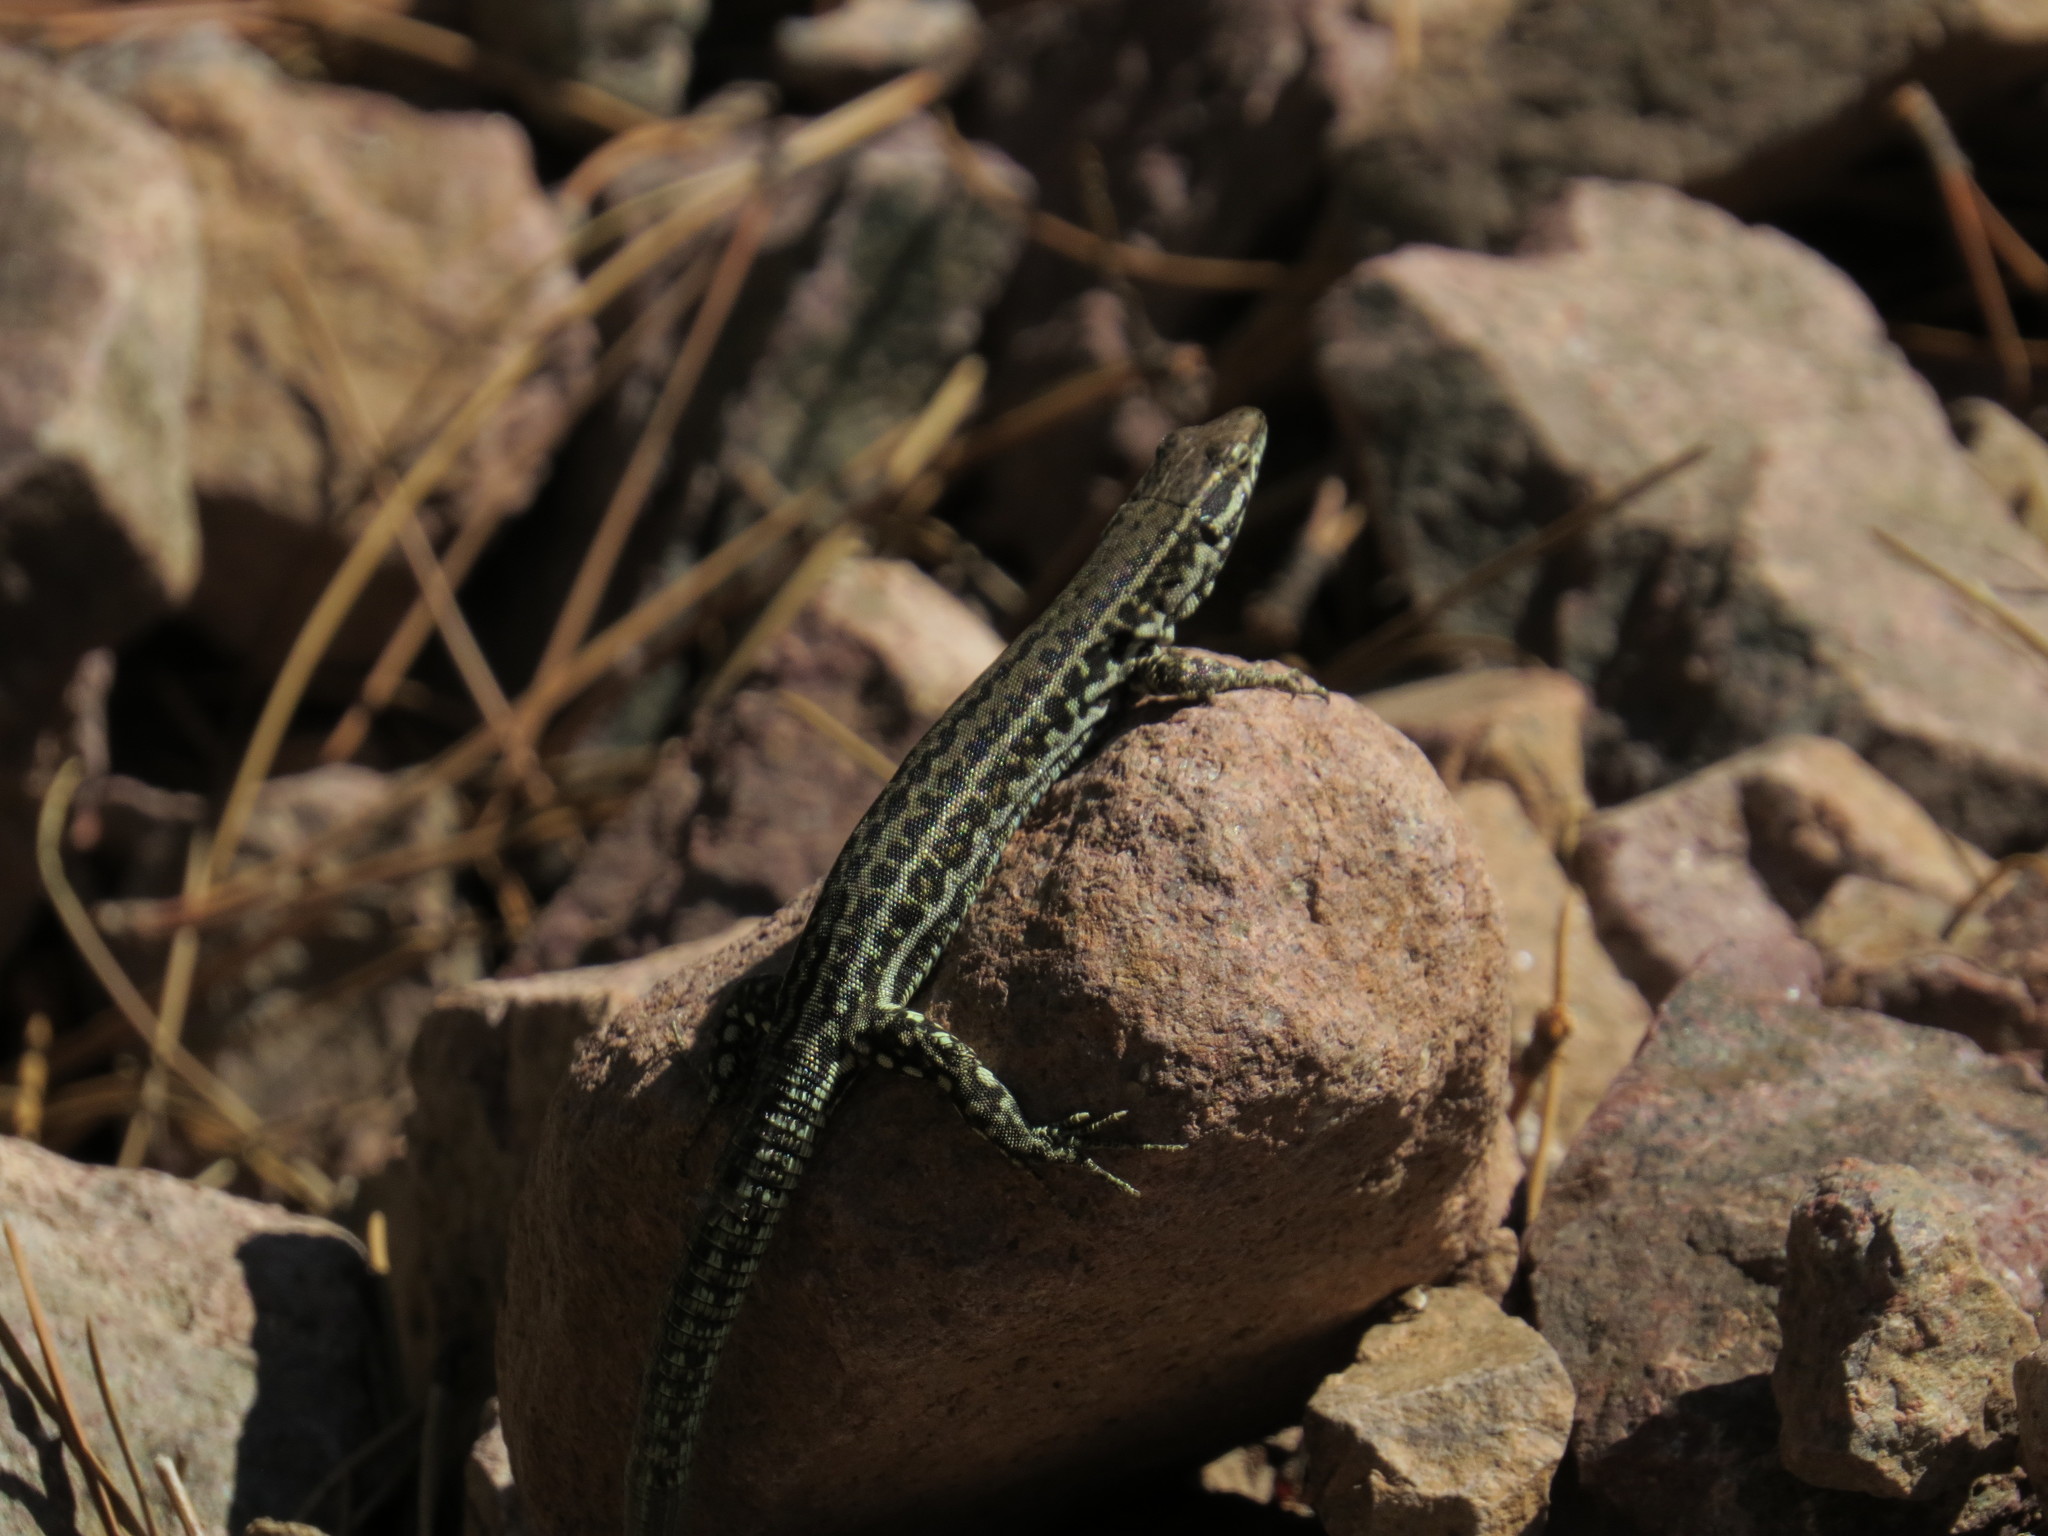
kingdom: Animalia
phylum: Chordata
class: Squamata
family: Lacertidae
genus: Podarcis
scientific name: Podarcis tiliguerta
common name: Tyrrhenian wall lizard
